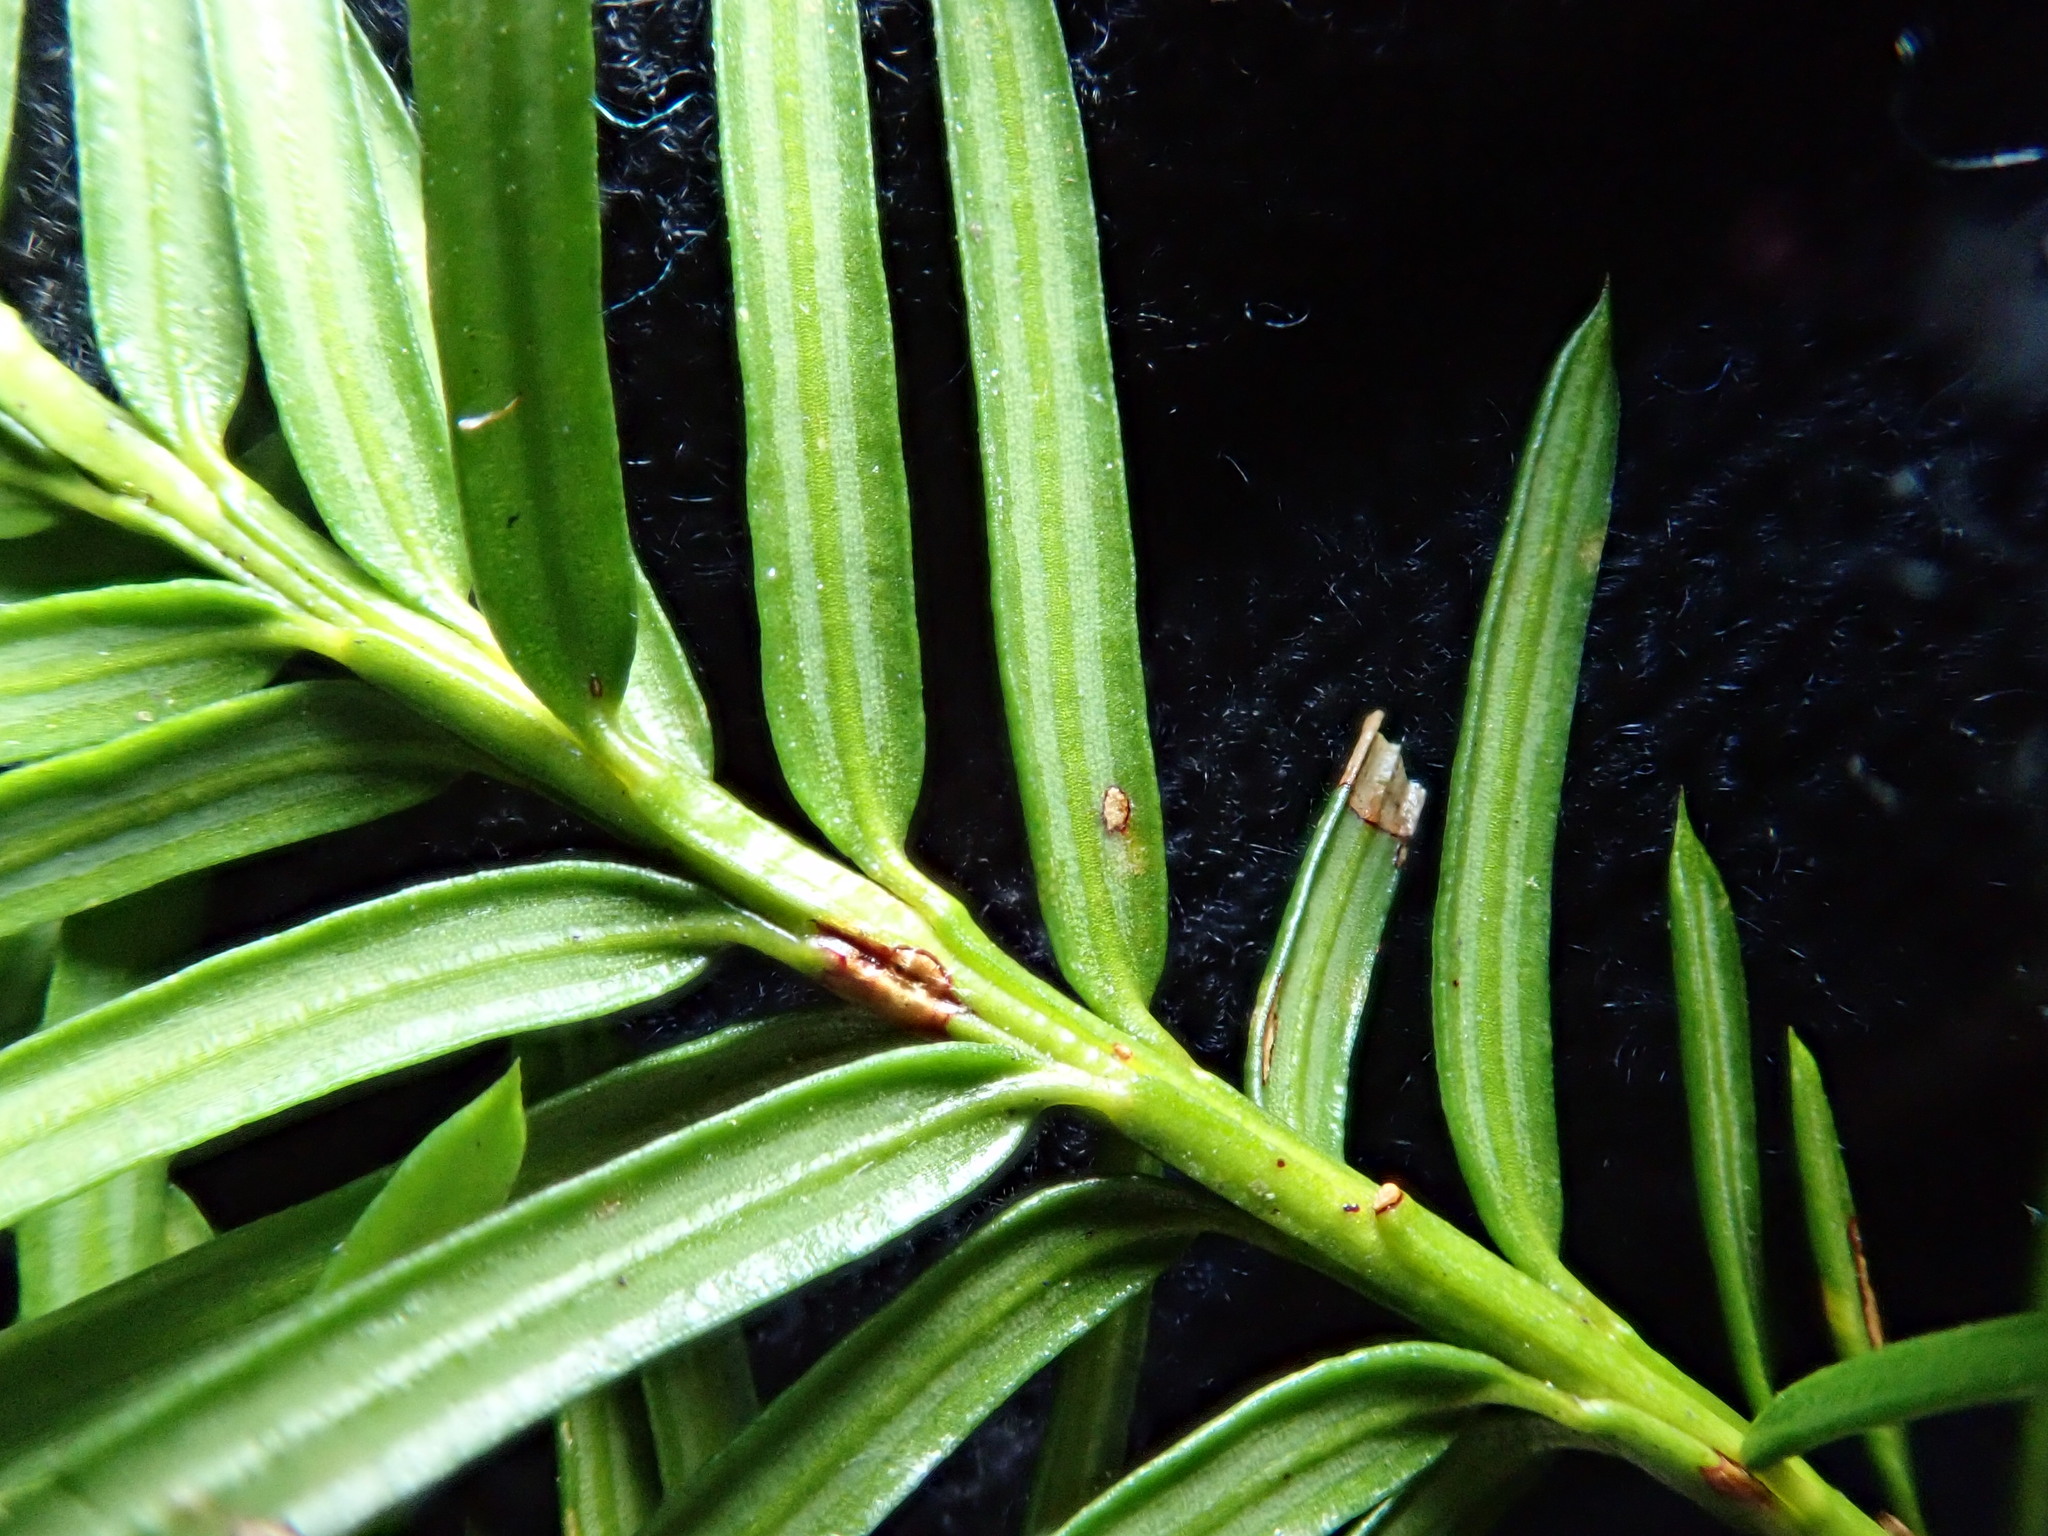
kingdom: Plantae
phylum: Tracheophyta
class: Pinopsida
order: Pinales
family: Taxaceae
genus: Taxus
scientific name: Taxus canadensis
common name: American yew
